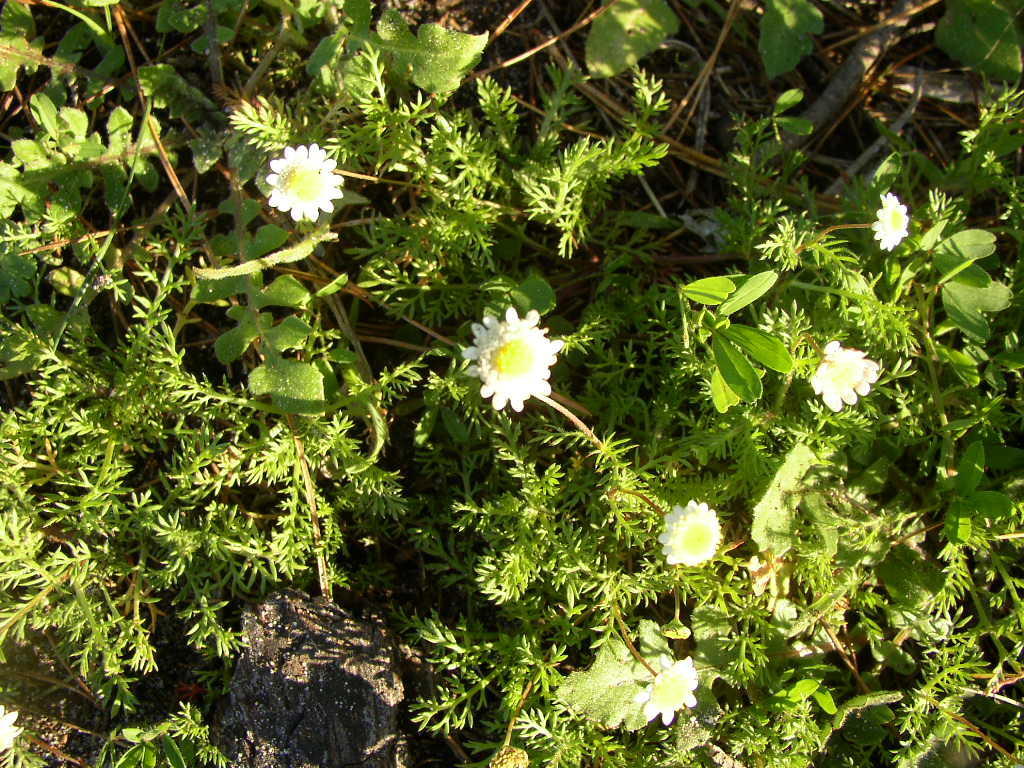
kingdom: Plantae
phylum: Tracheophyta
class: Magnoliopsida
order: Asterales
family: Asteraceae
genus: Cotula
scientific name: Cotula turbinata
